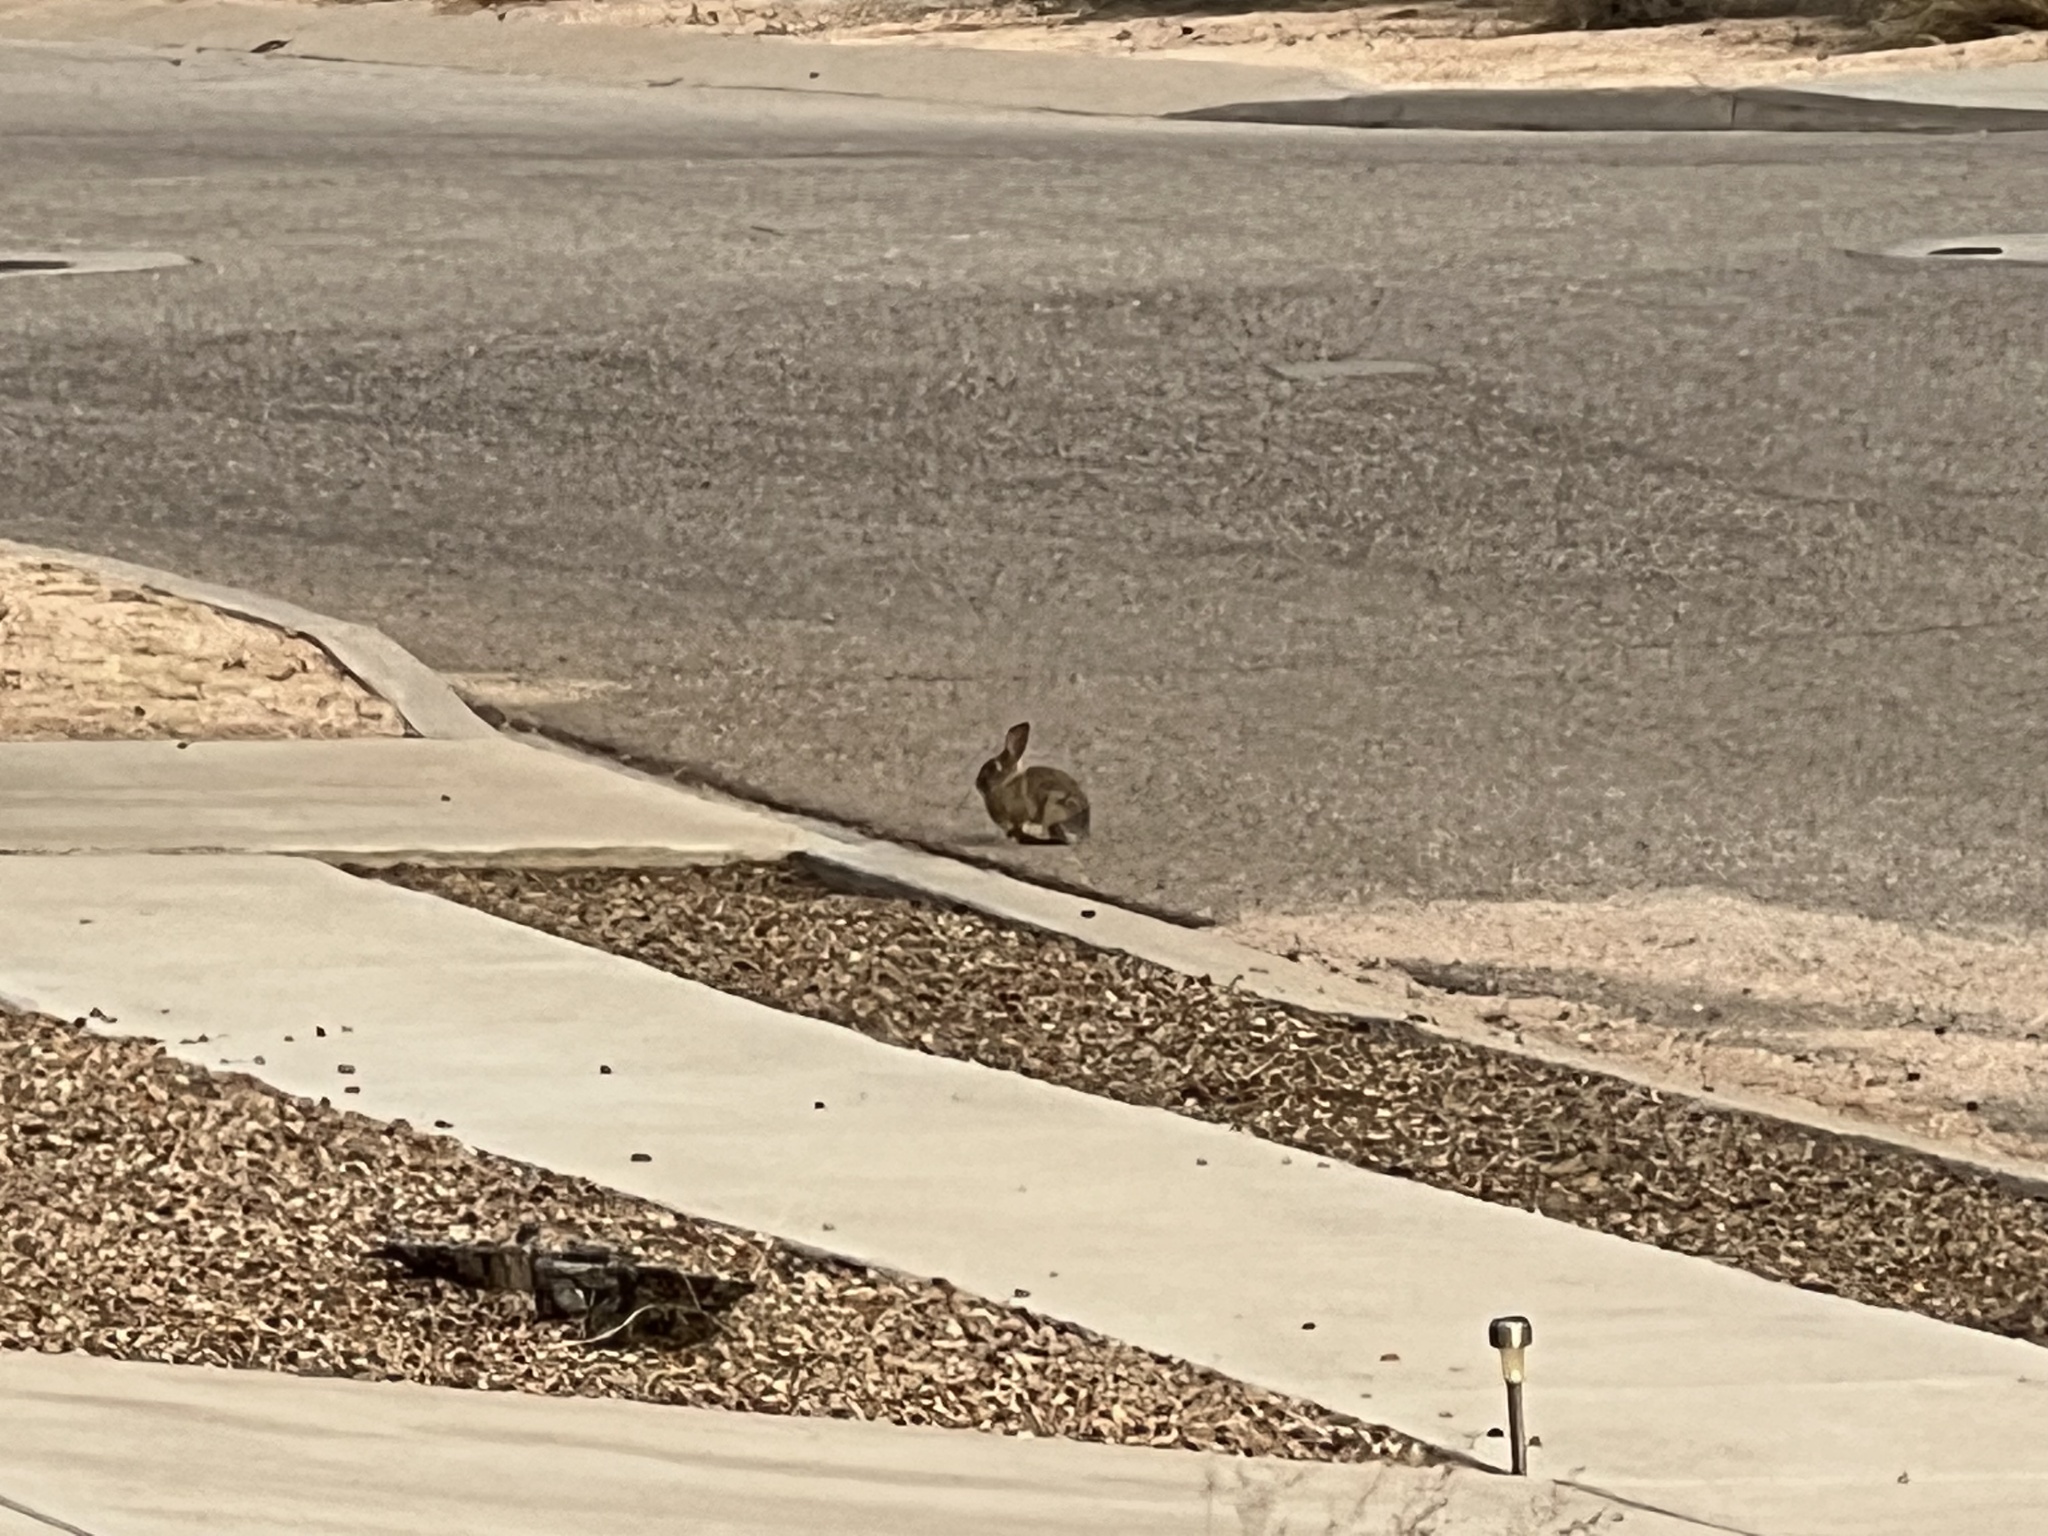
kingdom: Animalia
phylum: Chordata
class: Mammalia
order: Lagomorpha
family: Leporidae
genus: Sylvilagus
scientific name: Sylvilagus audubonii
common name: Desert cottontail
